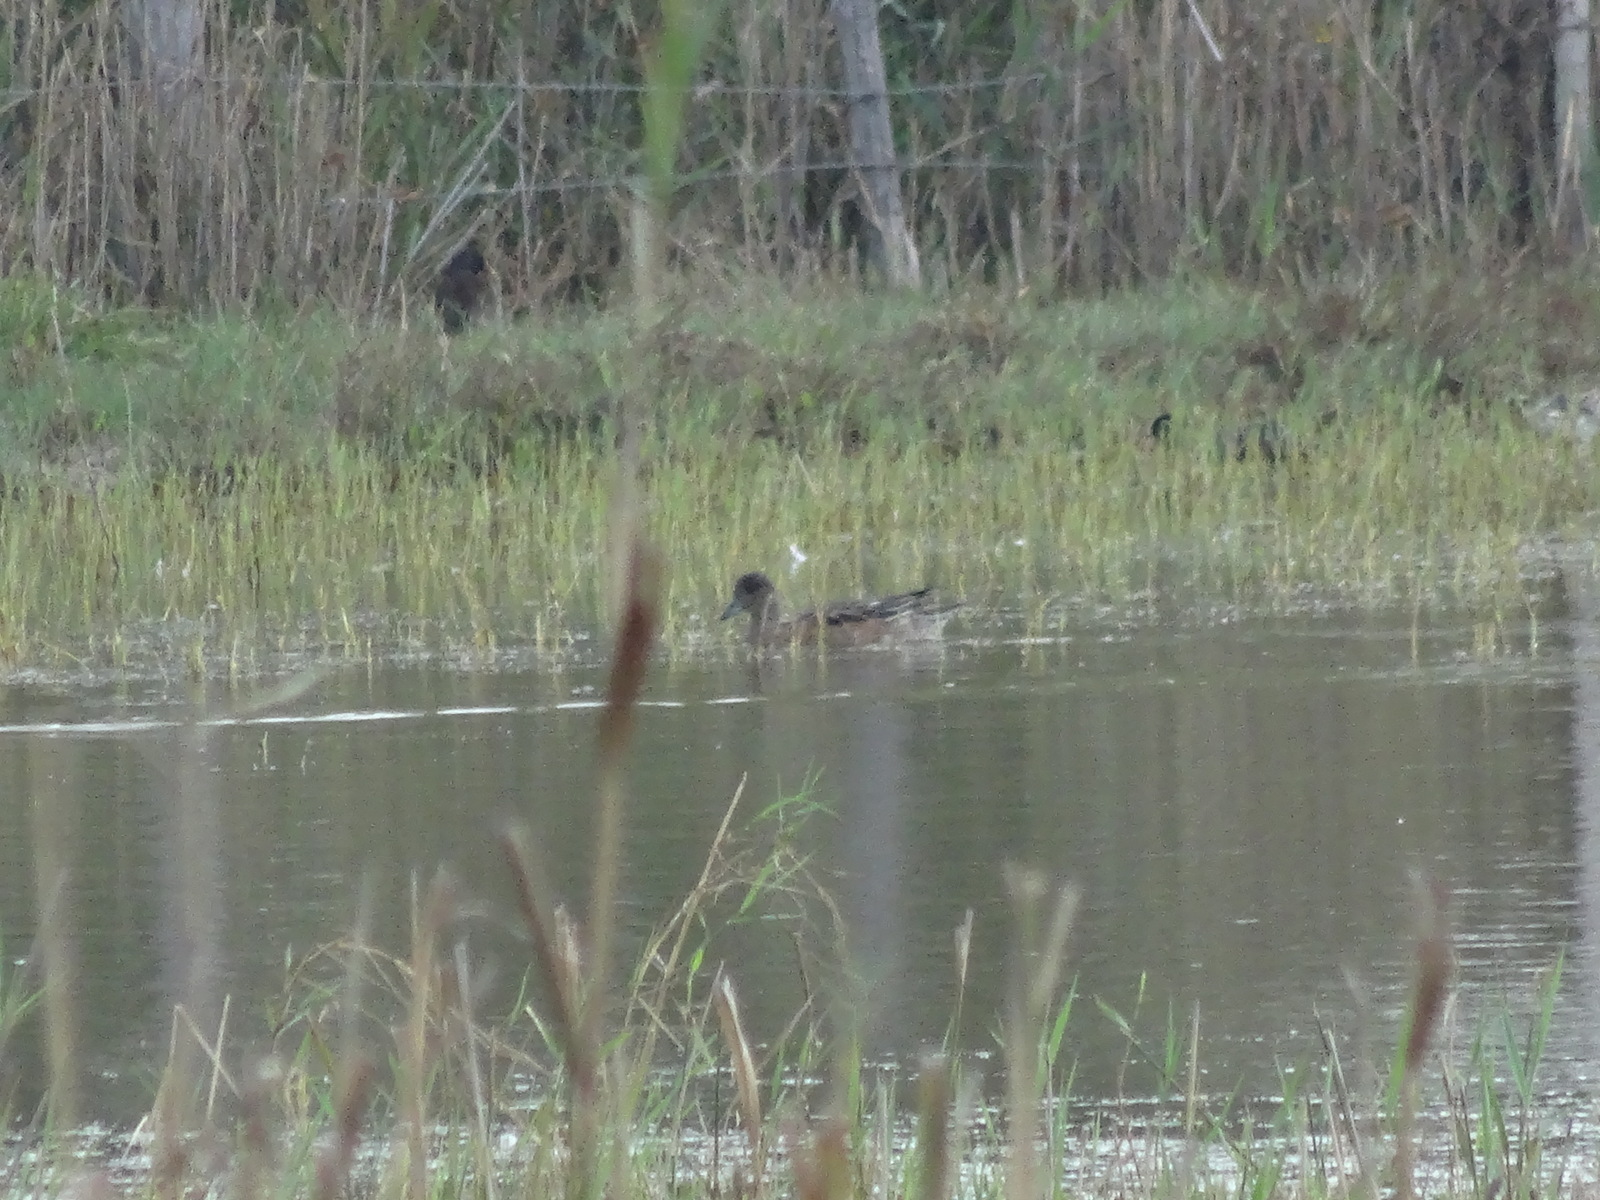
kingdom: Animalia
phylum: Chordata
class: Aves
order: Anseriformes
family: Anatidae
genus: Mareca
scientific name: Mareca penelope
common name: Eurasian wigeon
